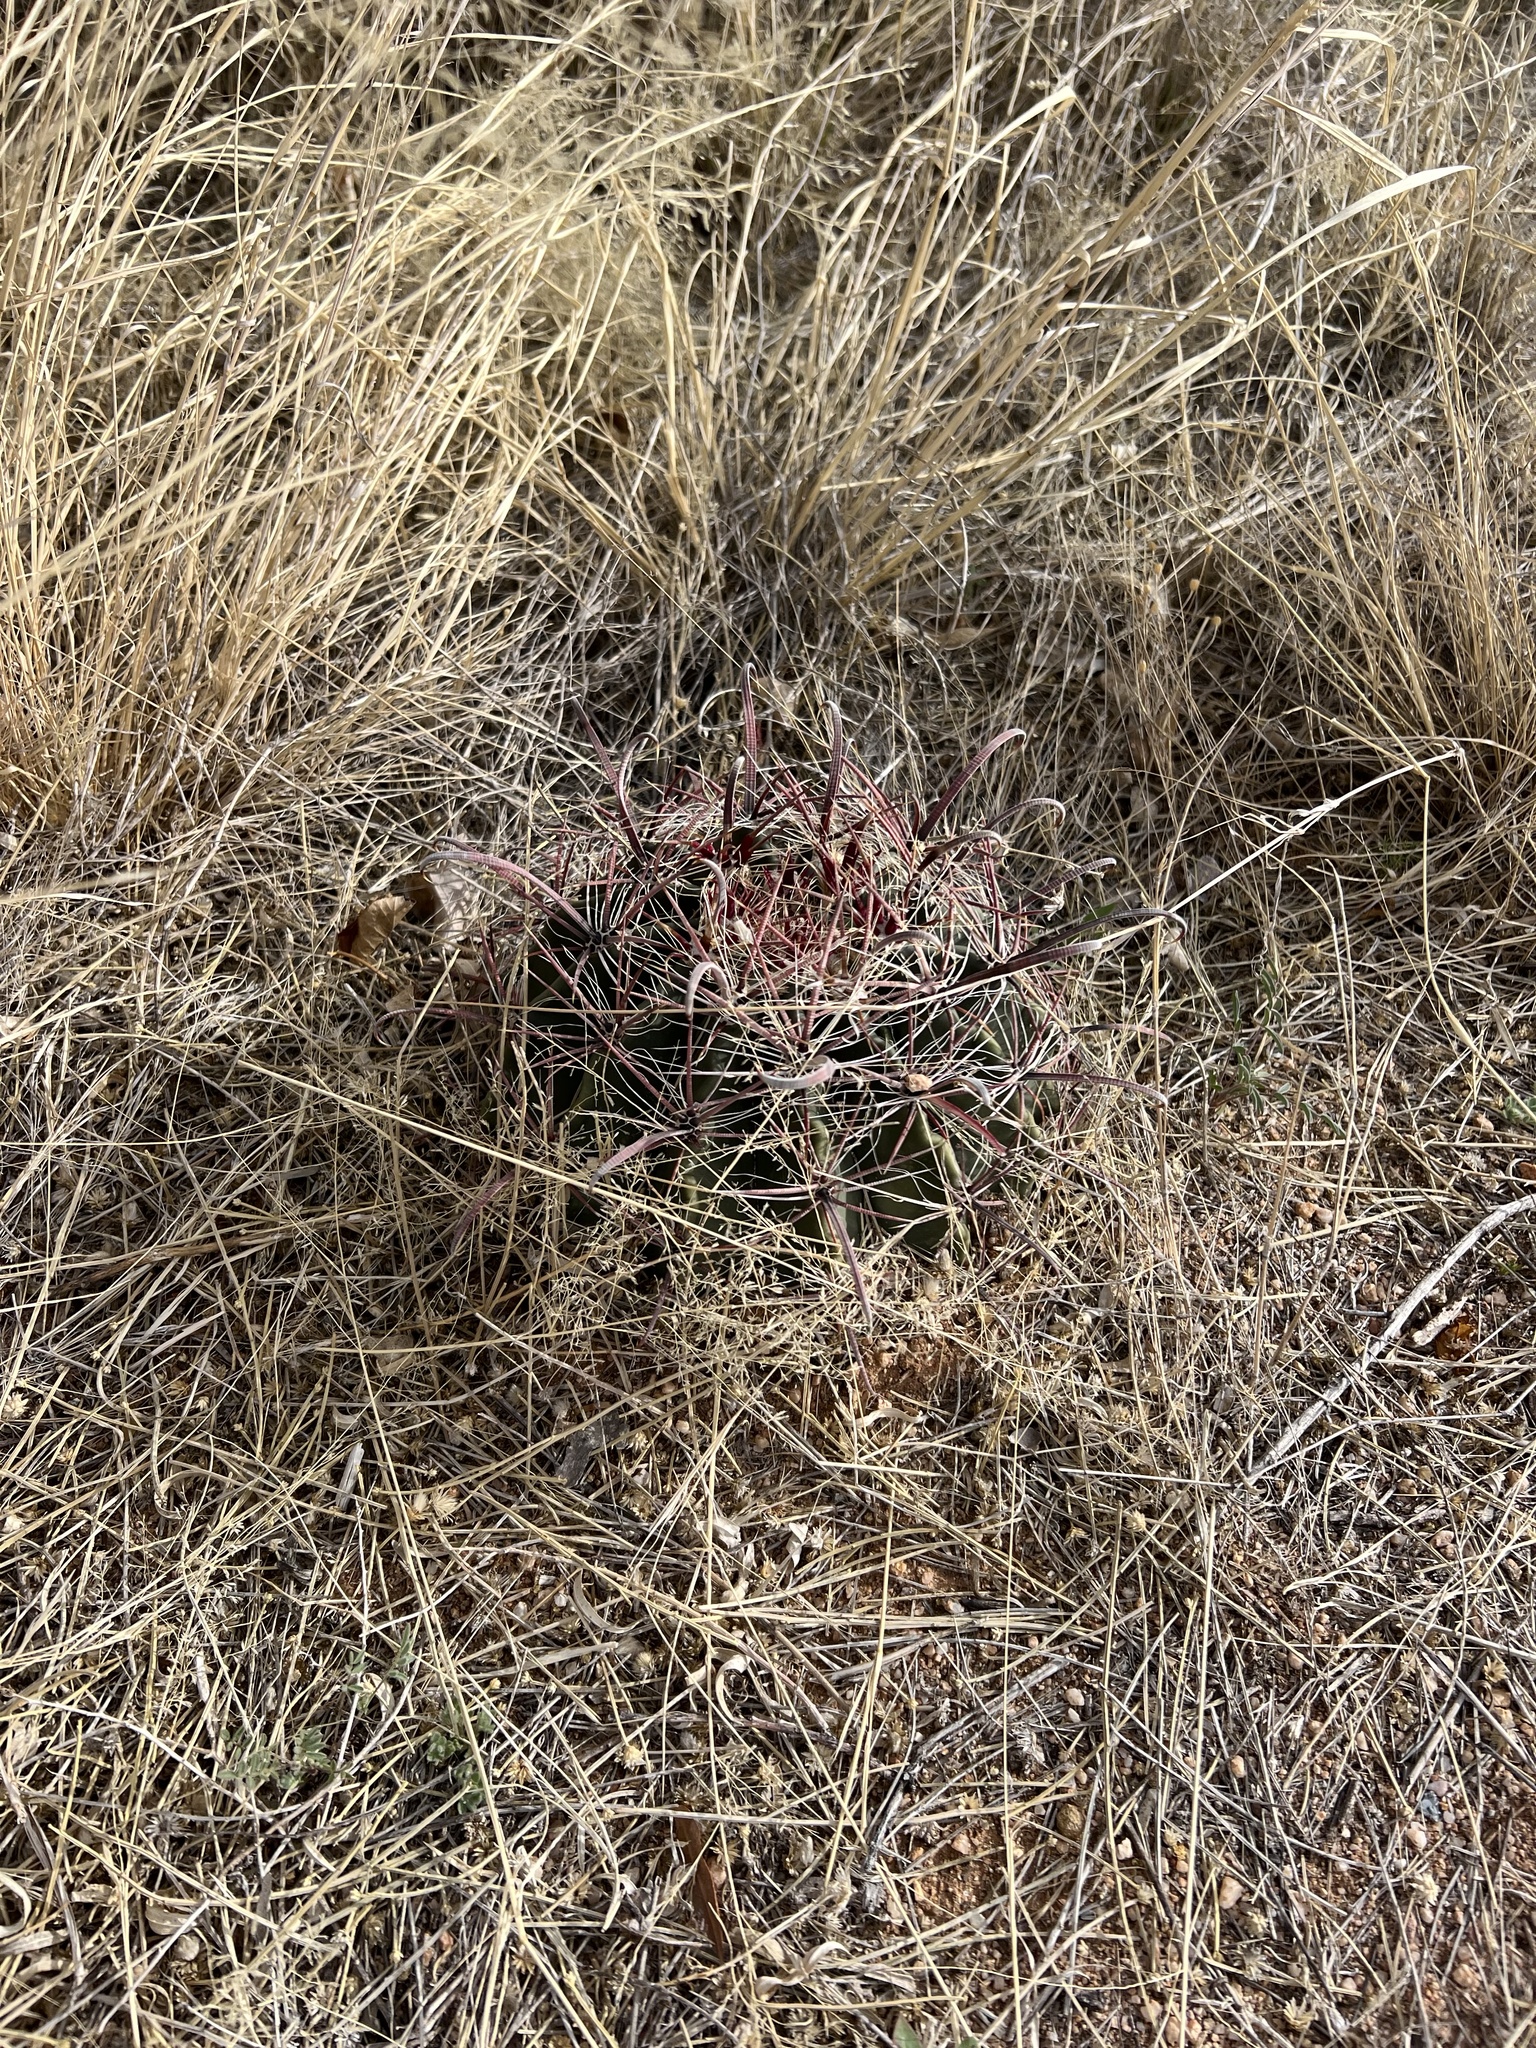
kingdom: Plantae
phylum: Tracheophyta
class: Magnoliopsida
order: Caryophyllales
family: Cactaceae
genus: Ferocactus
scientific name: Ferocactus wislizeni
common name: Candy barrel cactus
